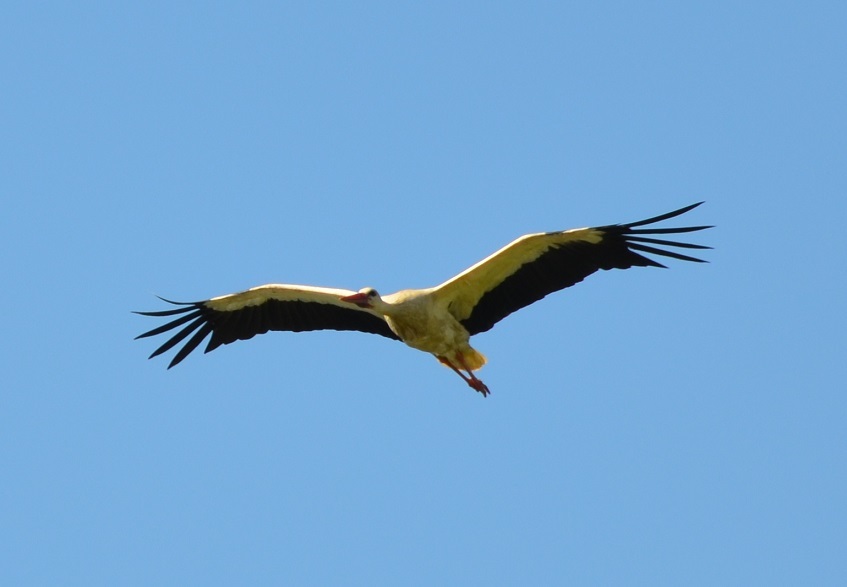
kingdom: Animalia
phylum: Chordata
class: Aves
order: Ciconiiformes
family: Ciconiidae
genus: Ciconia
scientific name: Ciconia ciconia
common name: White stork
